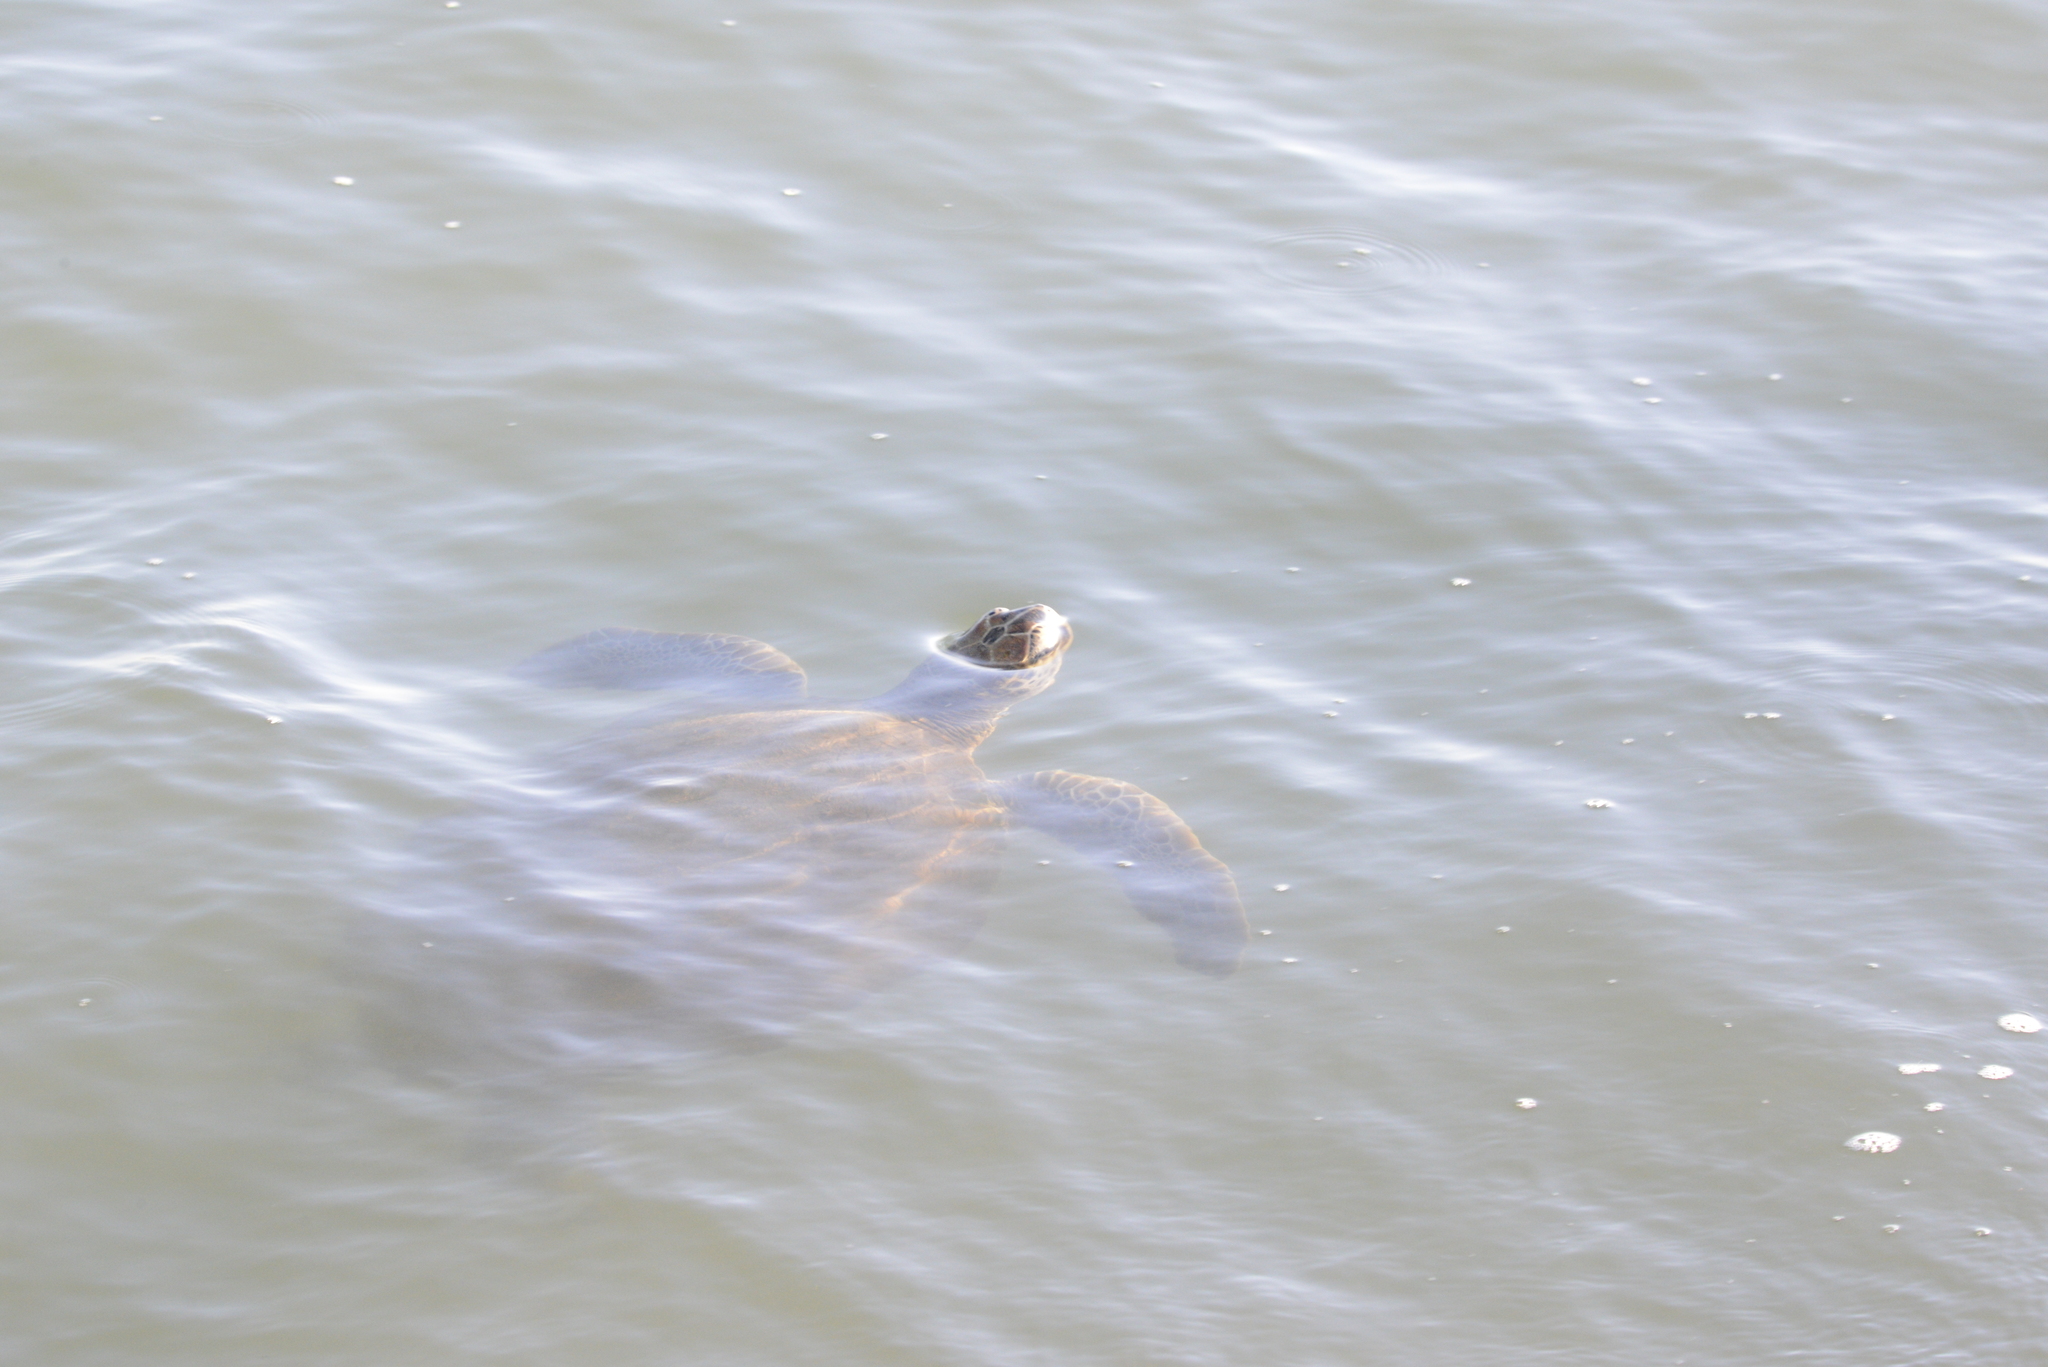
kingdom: Animalia
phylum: Chordata
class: Testudines
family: Cheloniidae
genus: Chelonia
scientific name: Chelonia mydas
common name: Green turtle
